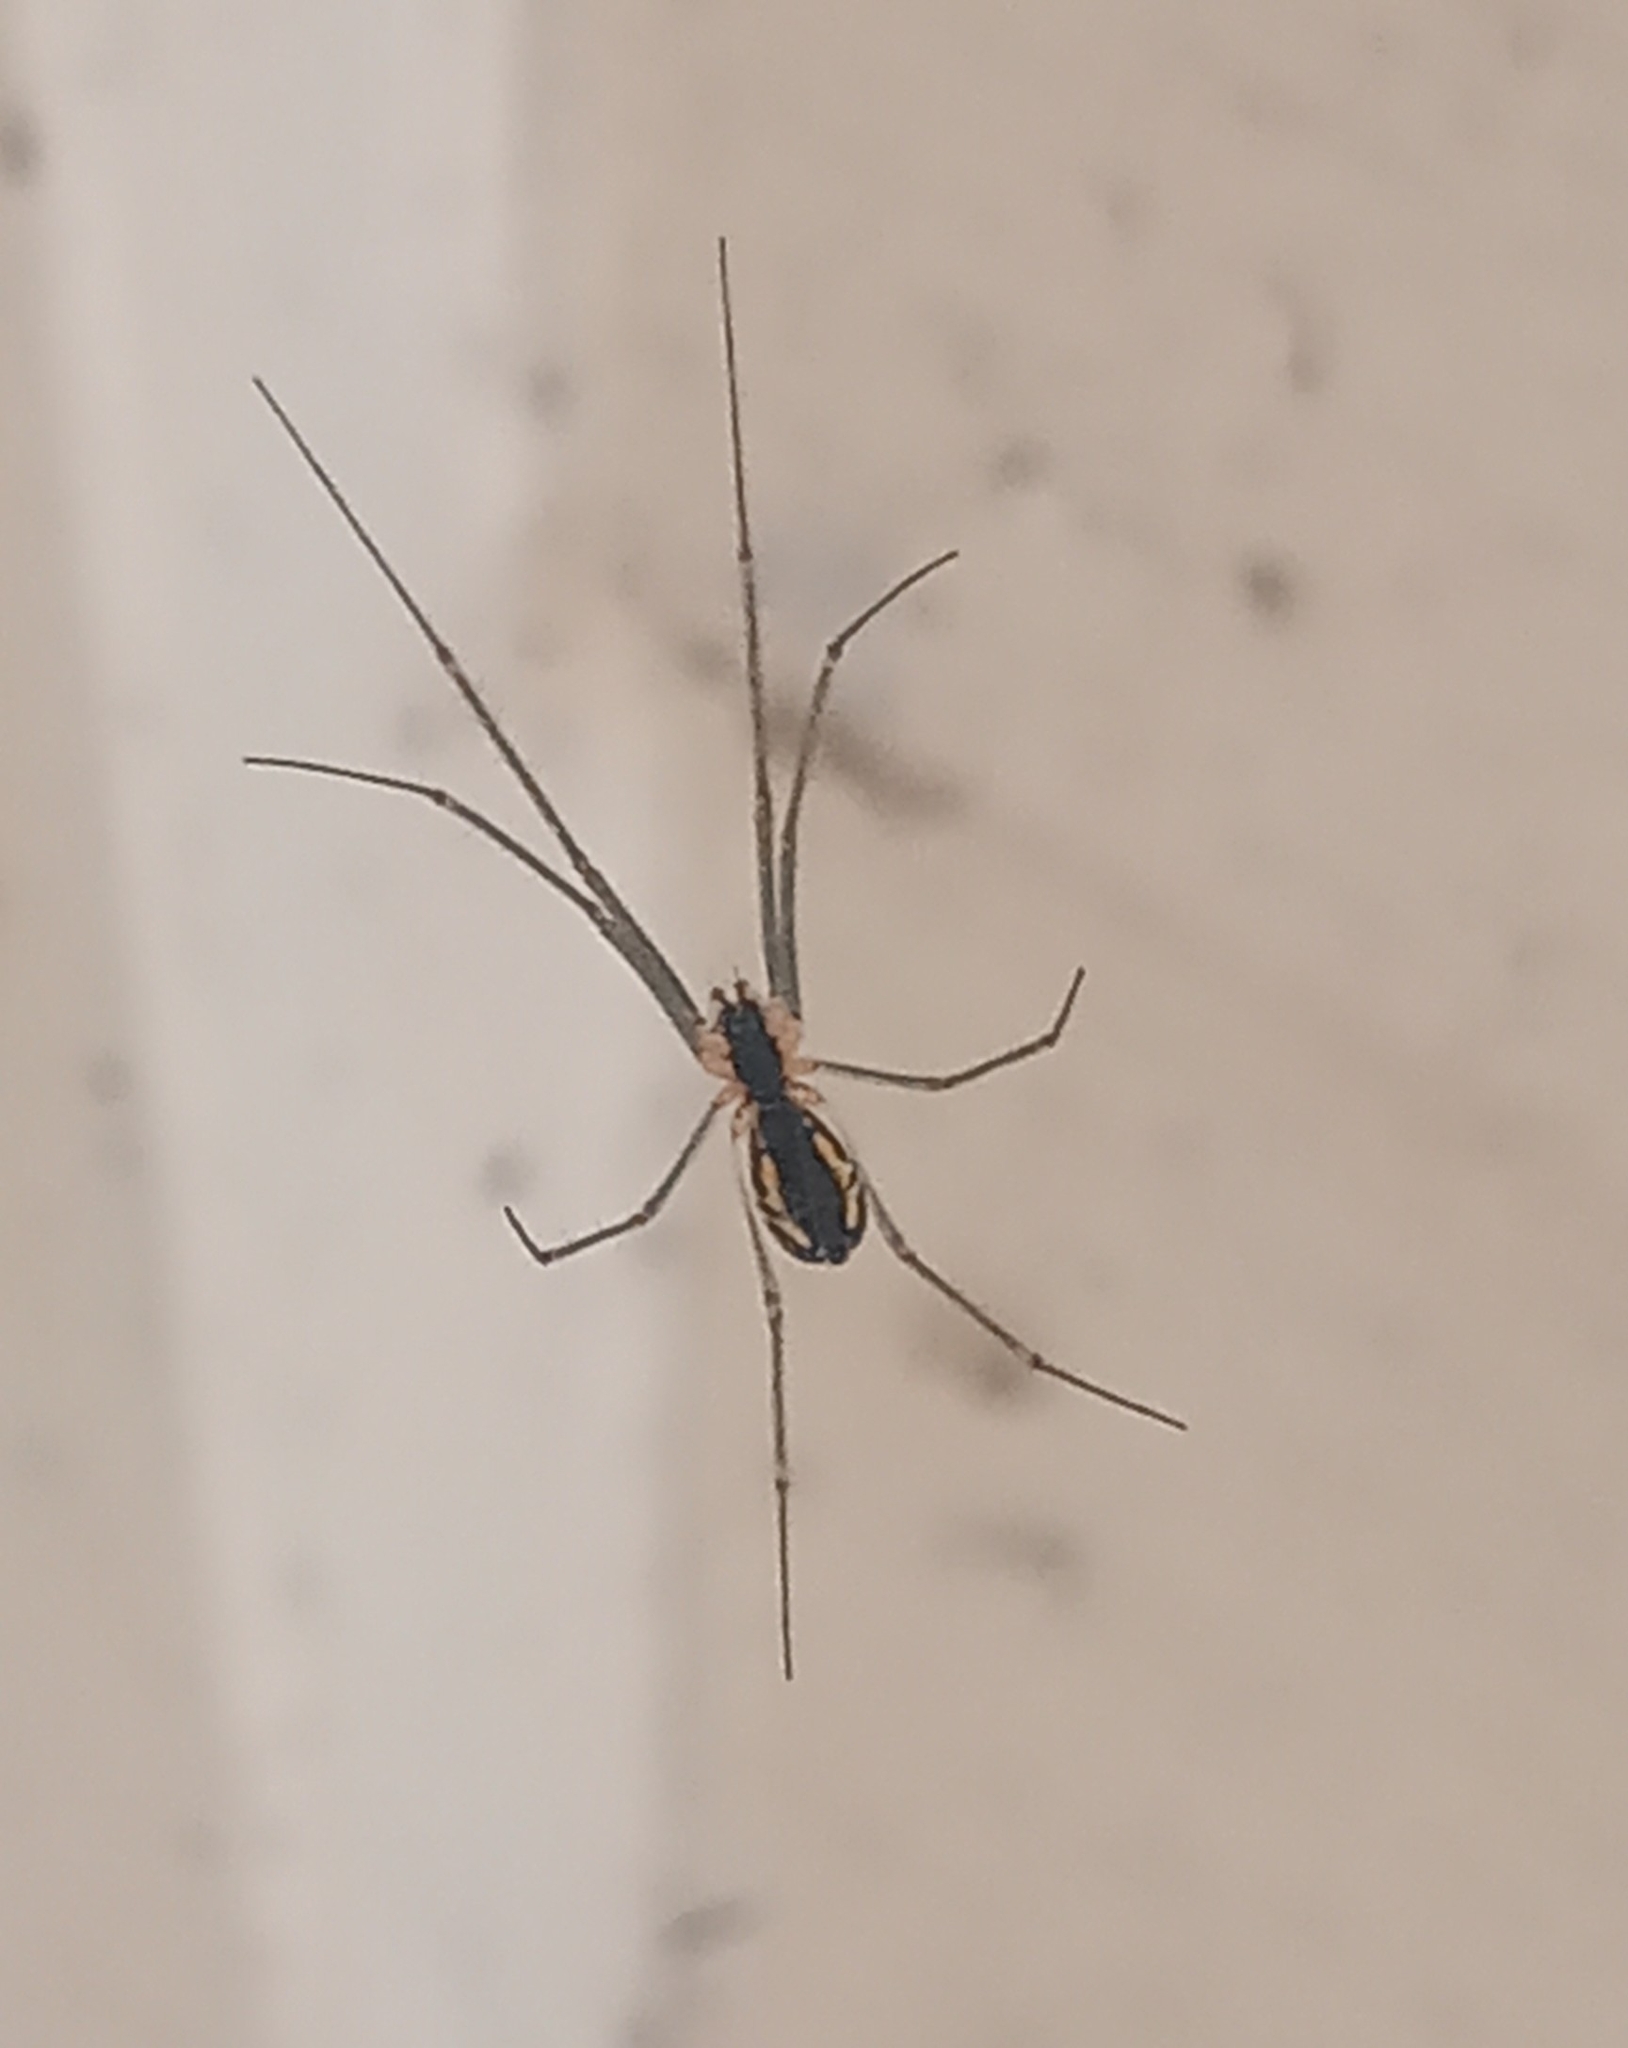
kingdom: Animalia
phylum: Arthropoda
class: Arachnida
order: Araneae
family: Linyphiidae
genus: Neriene
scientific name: Neriene radiata
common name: Filmy dome spider
